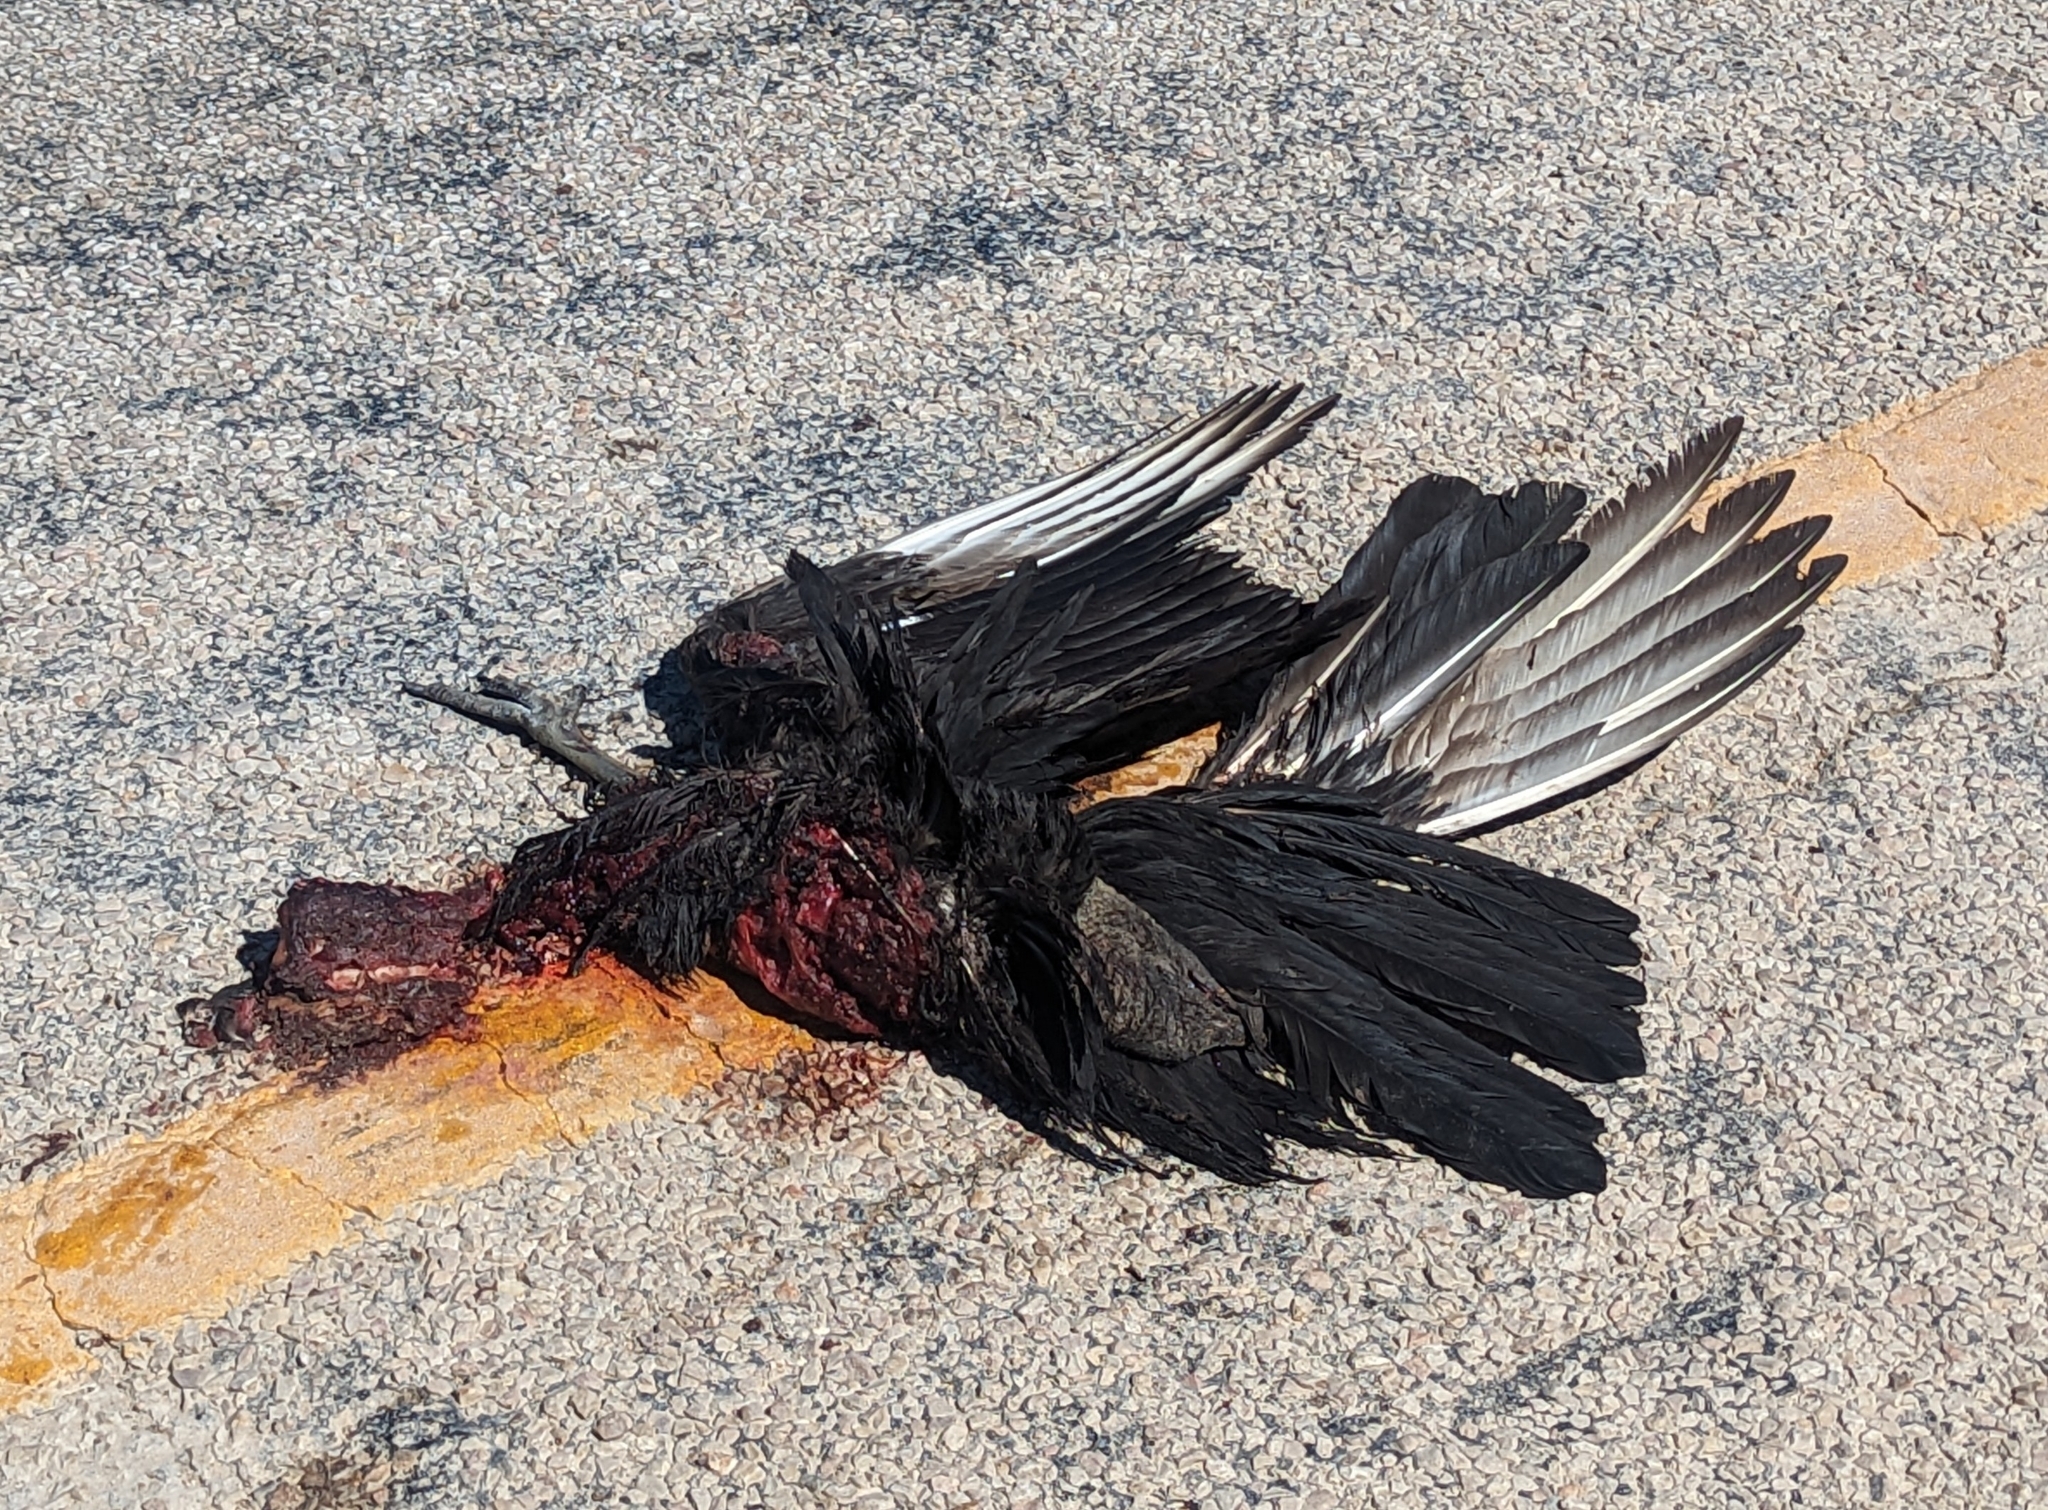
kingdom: Animalia
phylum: Chordata
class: Aves
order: Accipitriformes
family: Cathartidae
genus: Coragyps
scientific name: Coragyps atratus
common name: Black vulture
